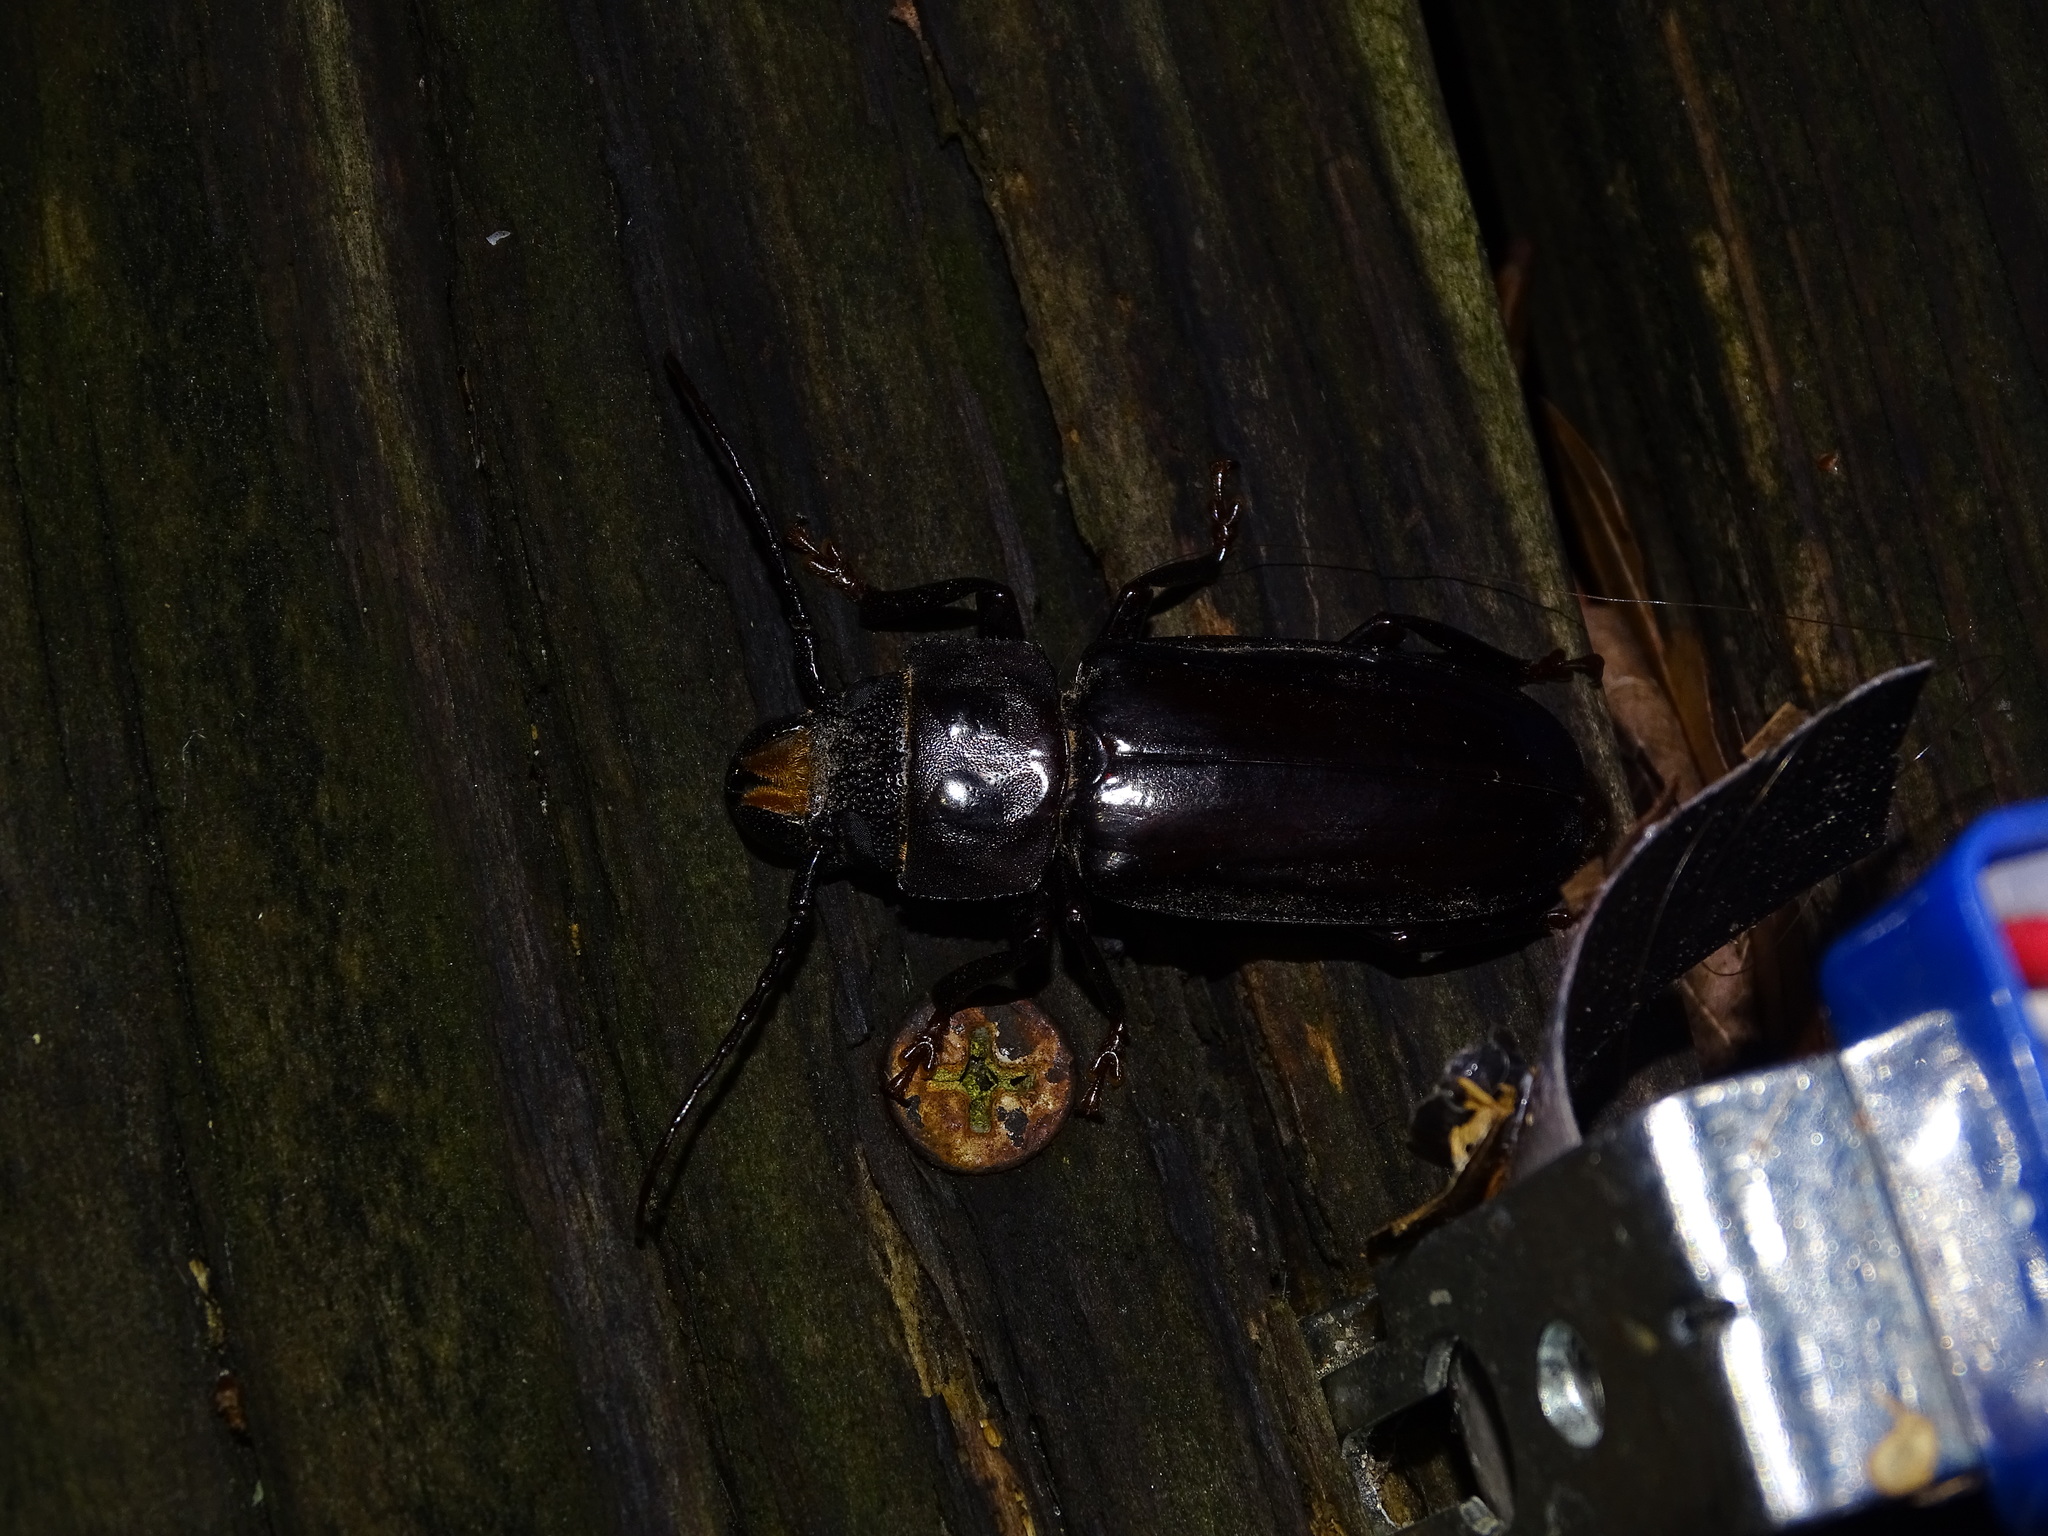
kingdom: Animalia
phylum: Arthropoda
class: Insecta
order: Coleoptera
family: Cerambycidae
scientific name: Cerambycidae
